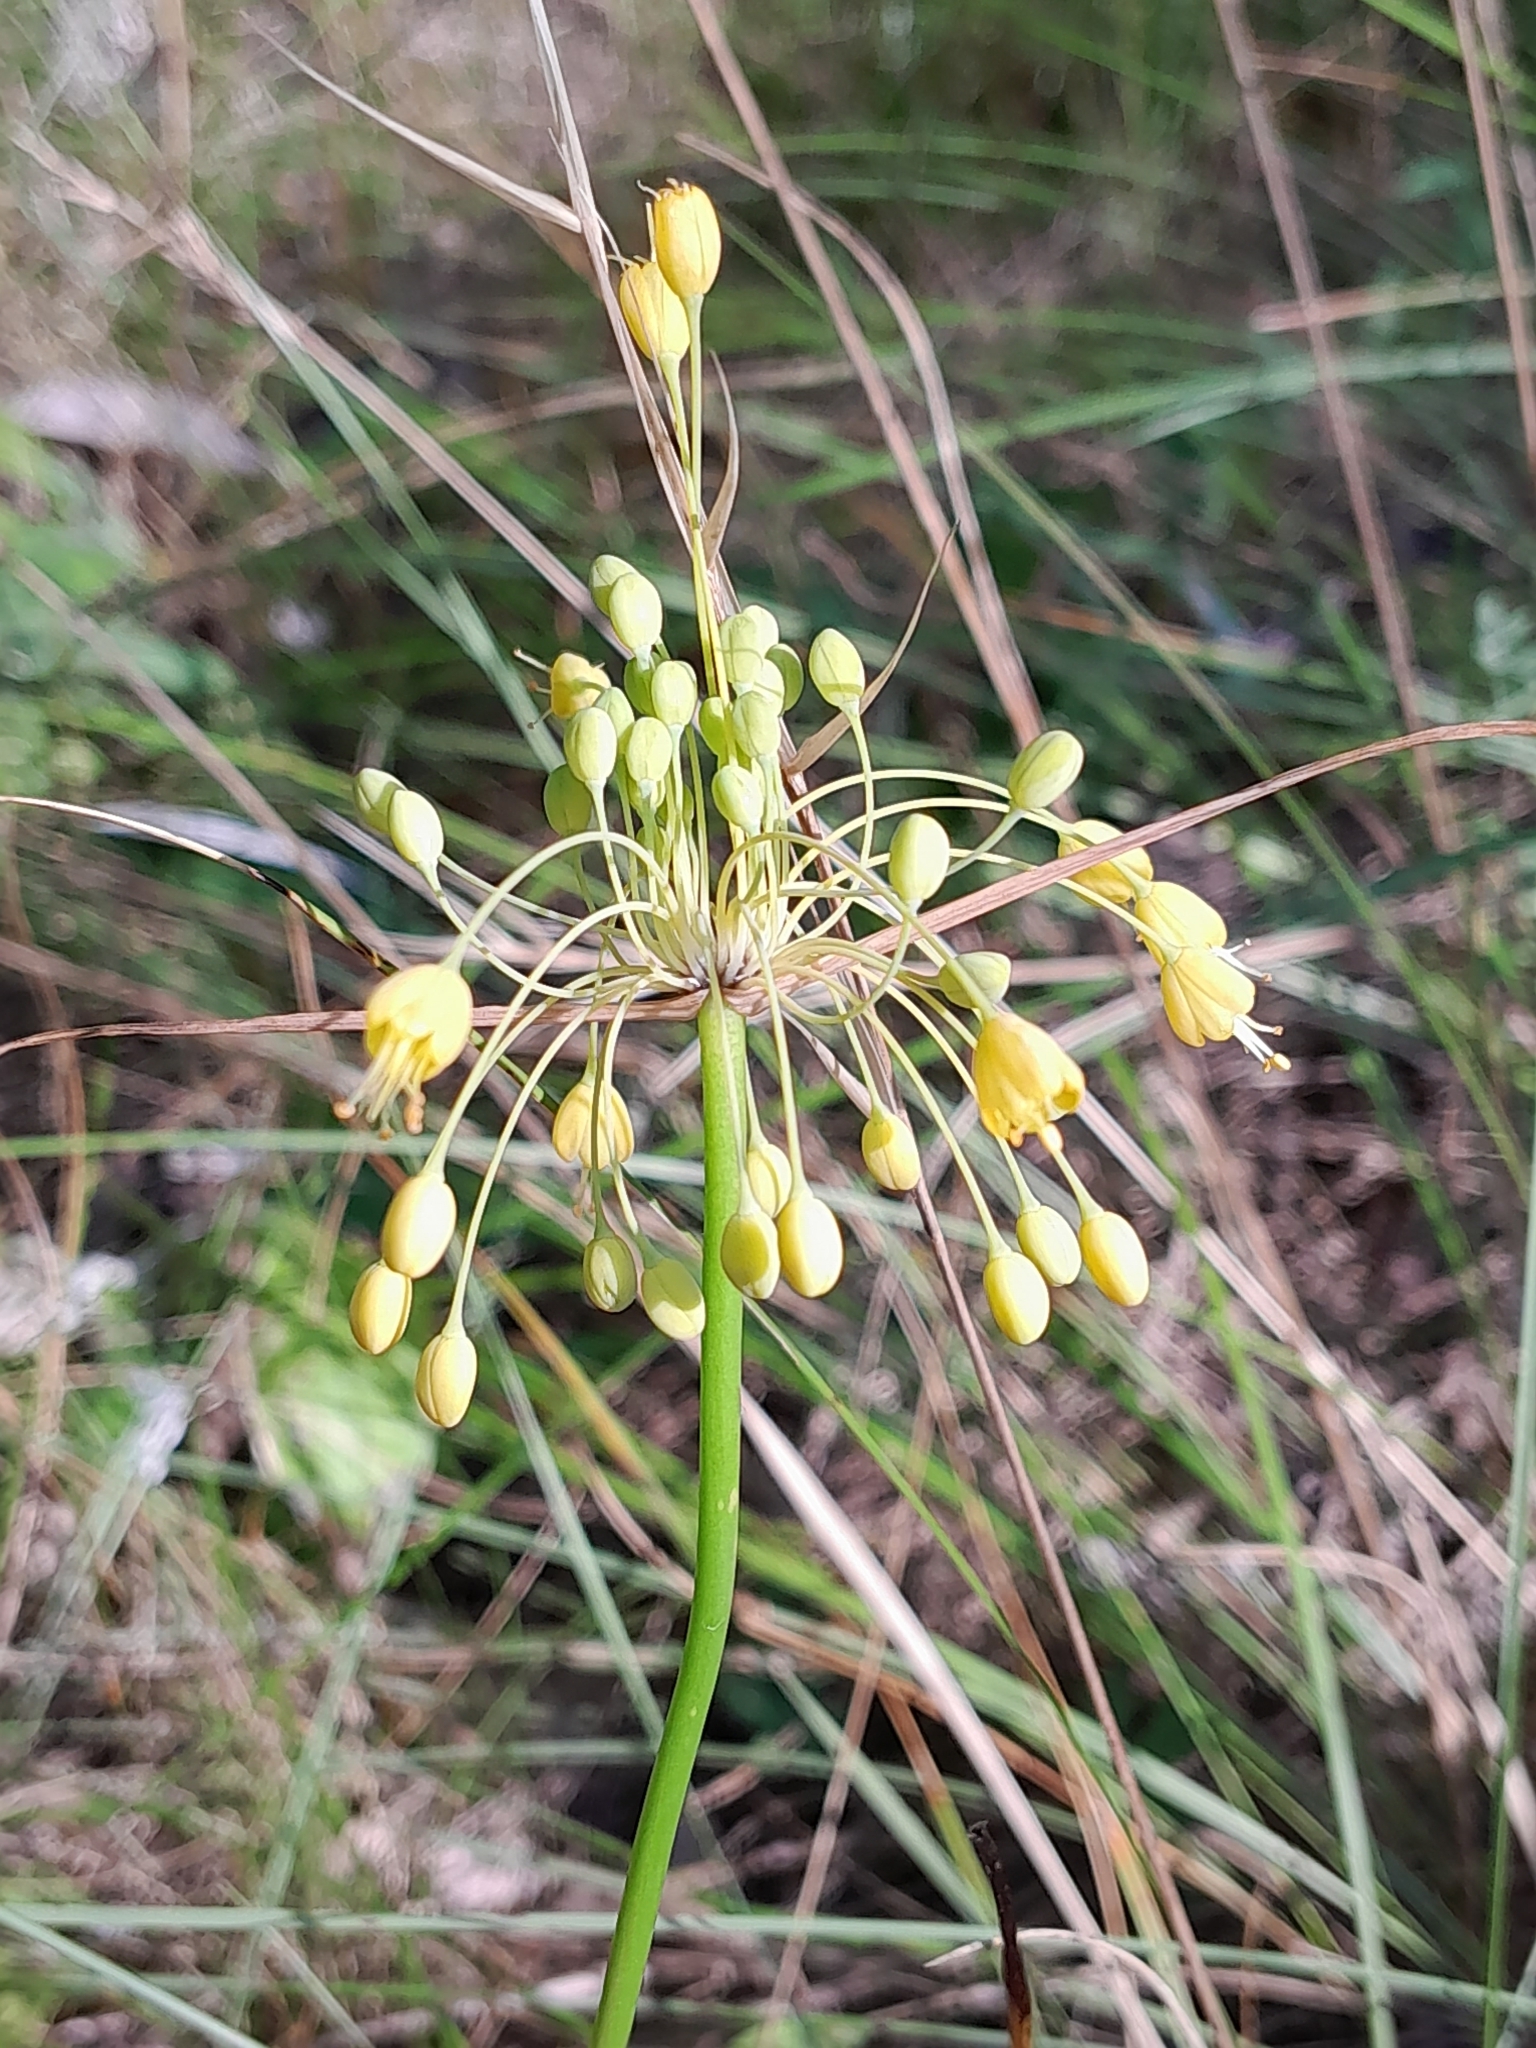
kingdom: Plantae
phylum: Tracheophyta
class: Liliopsida
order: Asparagales
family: Amaryllidaceae
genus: Allium
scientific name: Allium flavum
